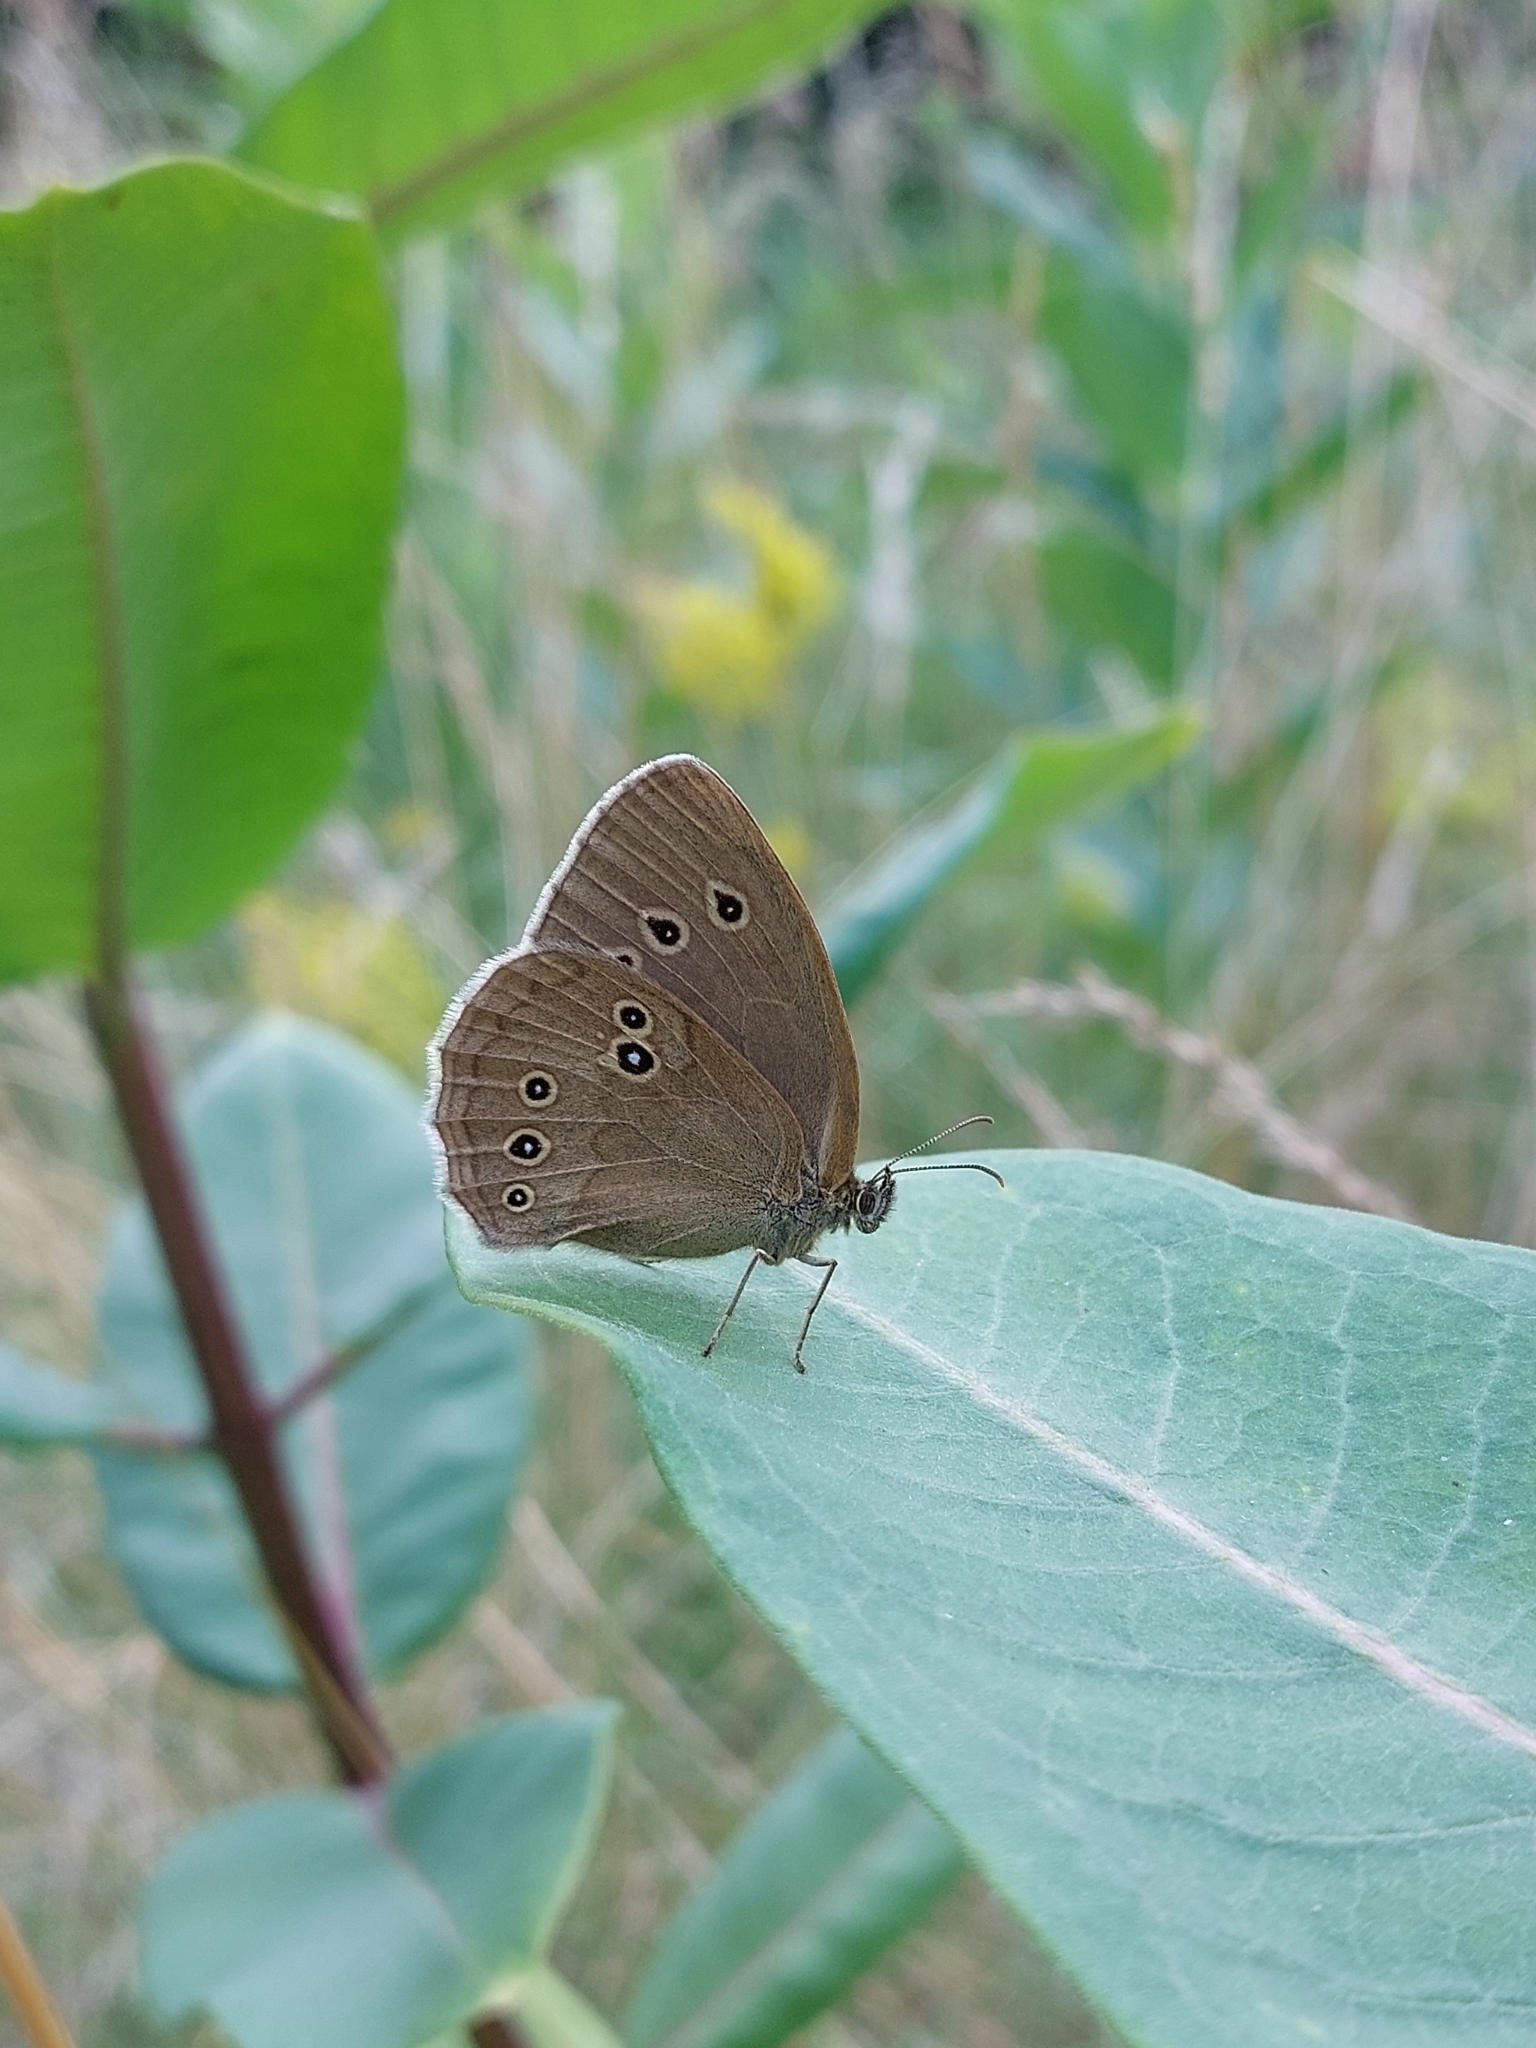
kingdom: Animalia
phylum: Arthropoda
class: Insecta
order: Lepidoptera
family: Nymphalidae
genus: Aphantopus
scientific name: Aphantopus hyperantus
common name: Ringlet
